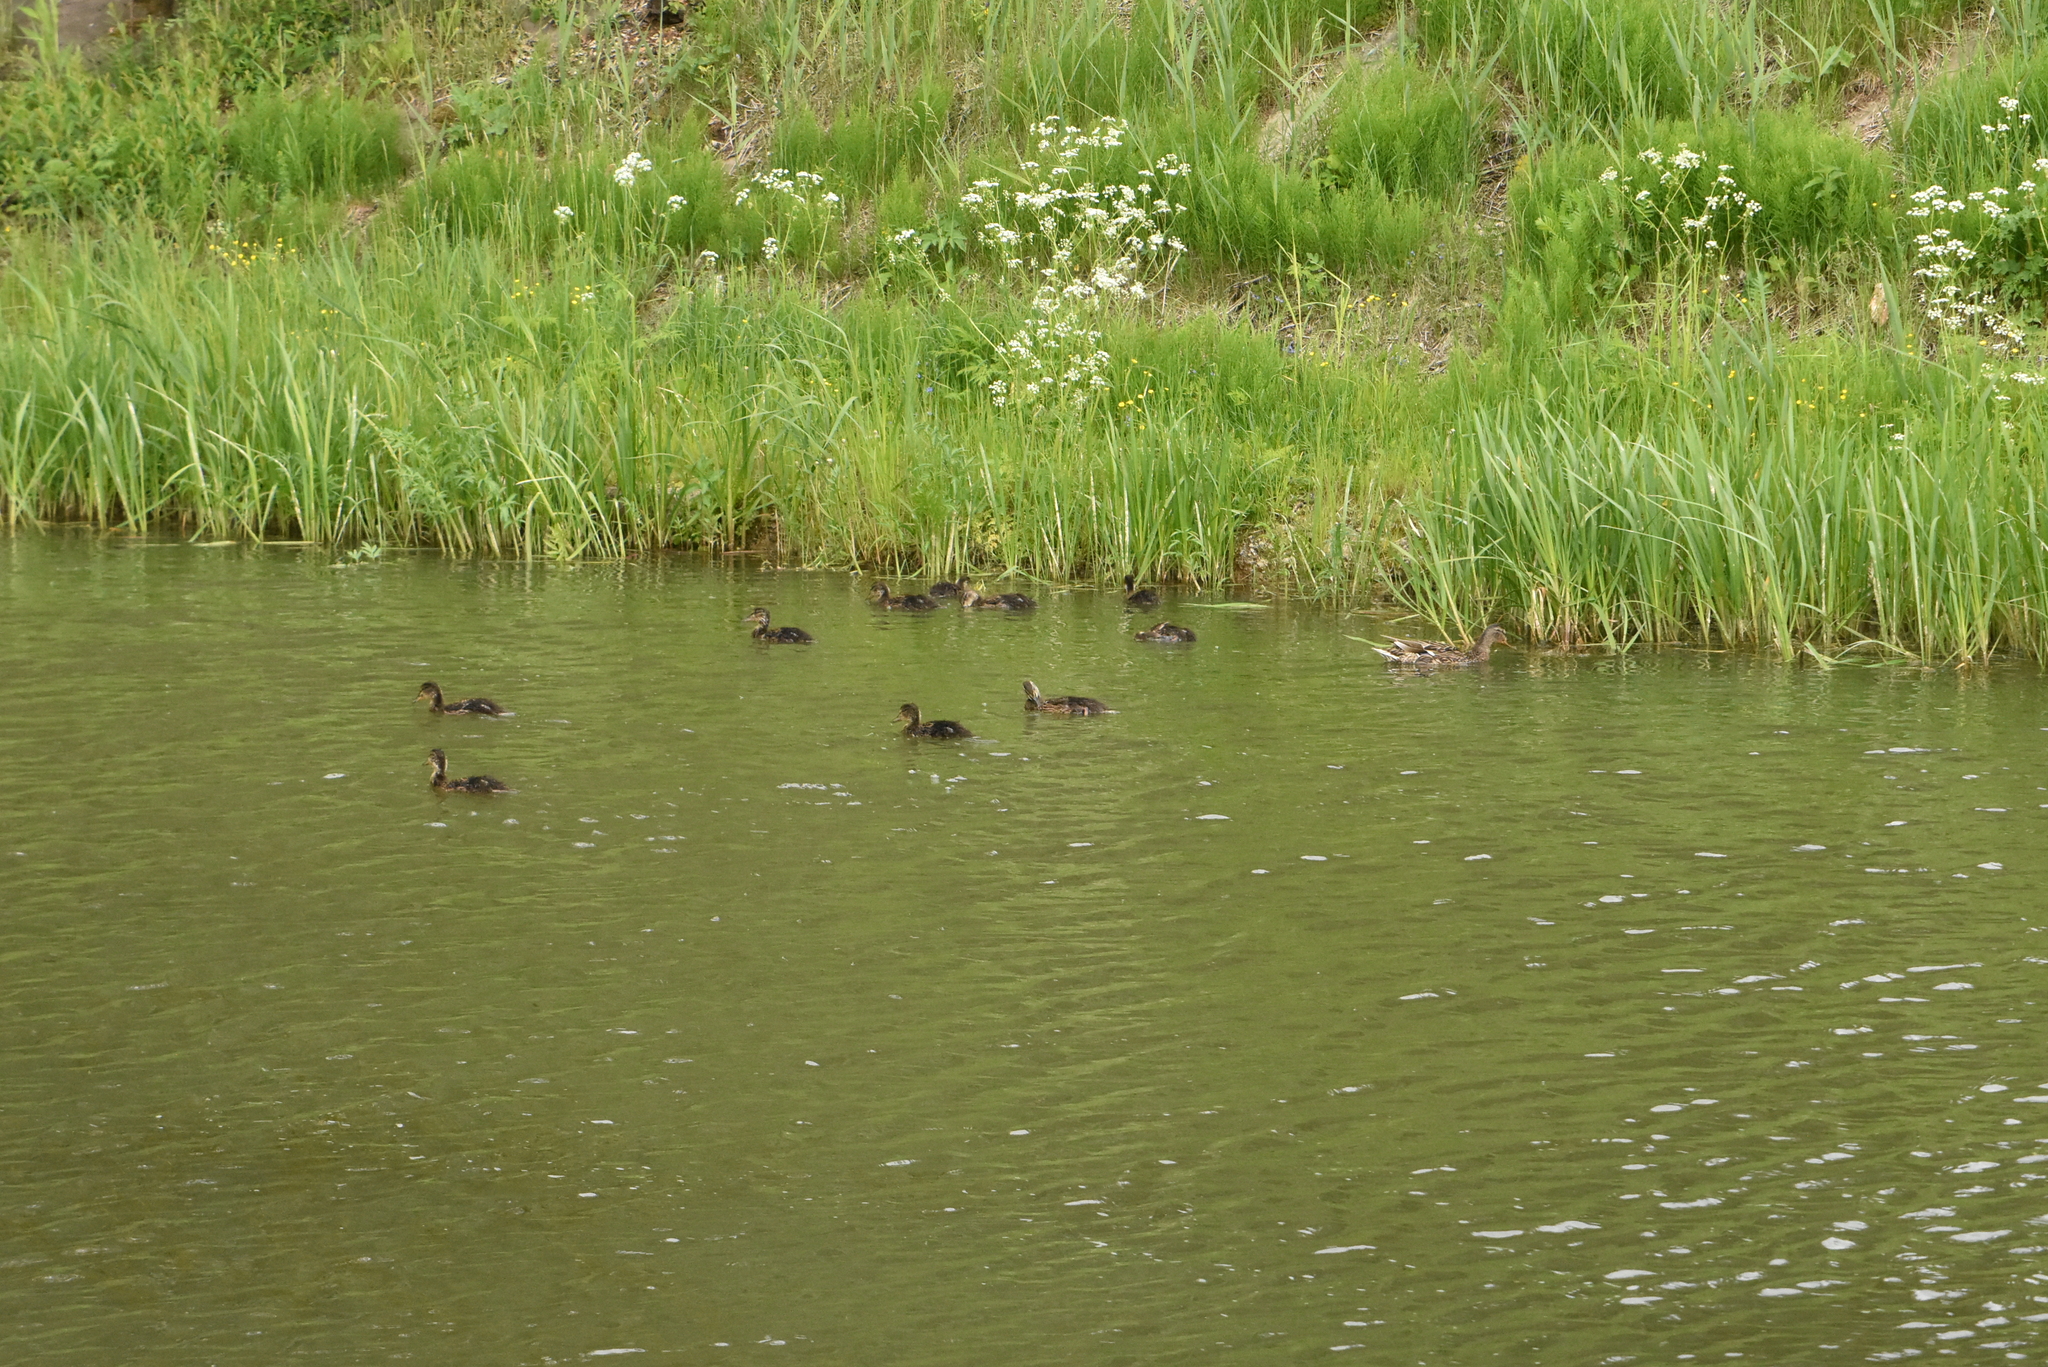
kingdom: Animalia
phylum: Chordata
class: Aves
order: Anseriformes
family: Anatidae
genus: Anas
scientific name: Anas platyrhynchos
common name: Mallard
